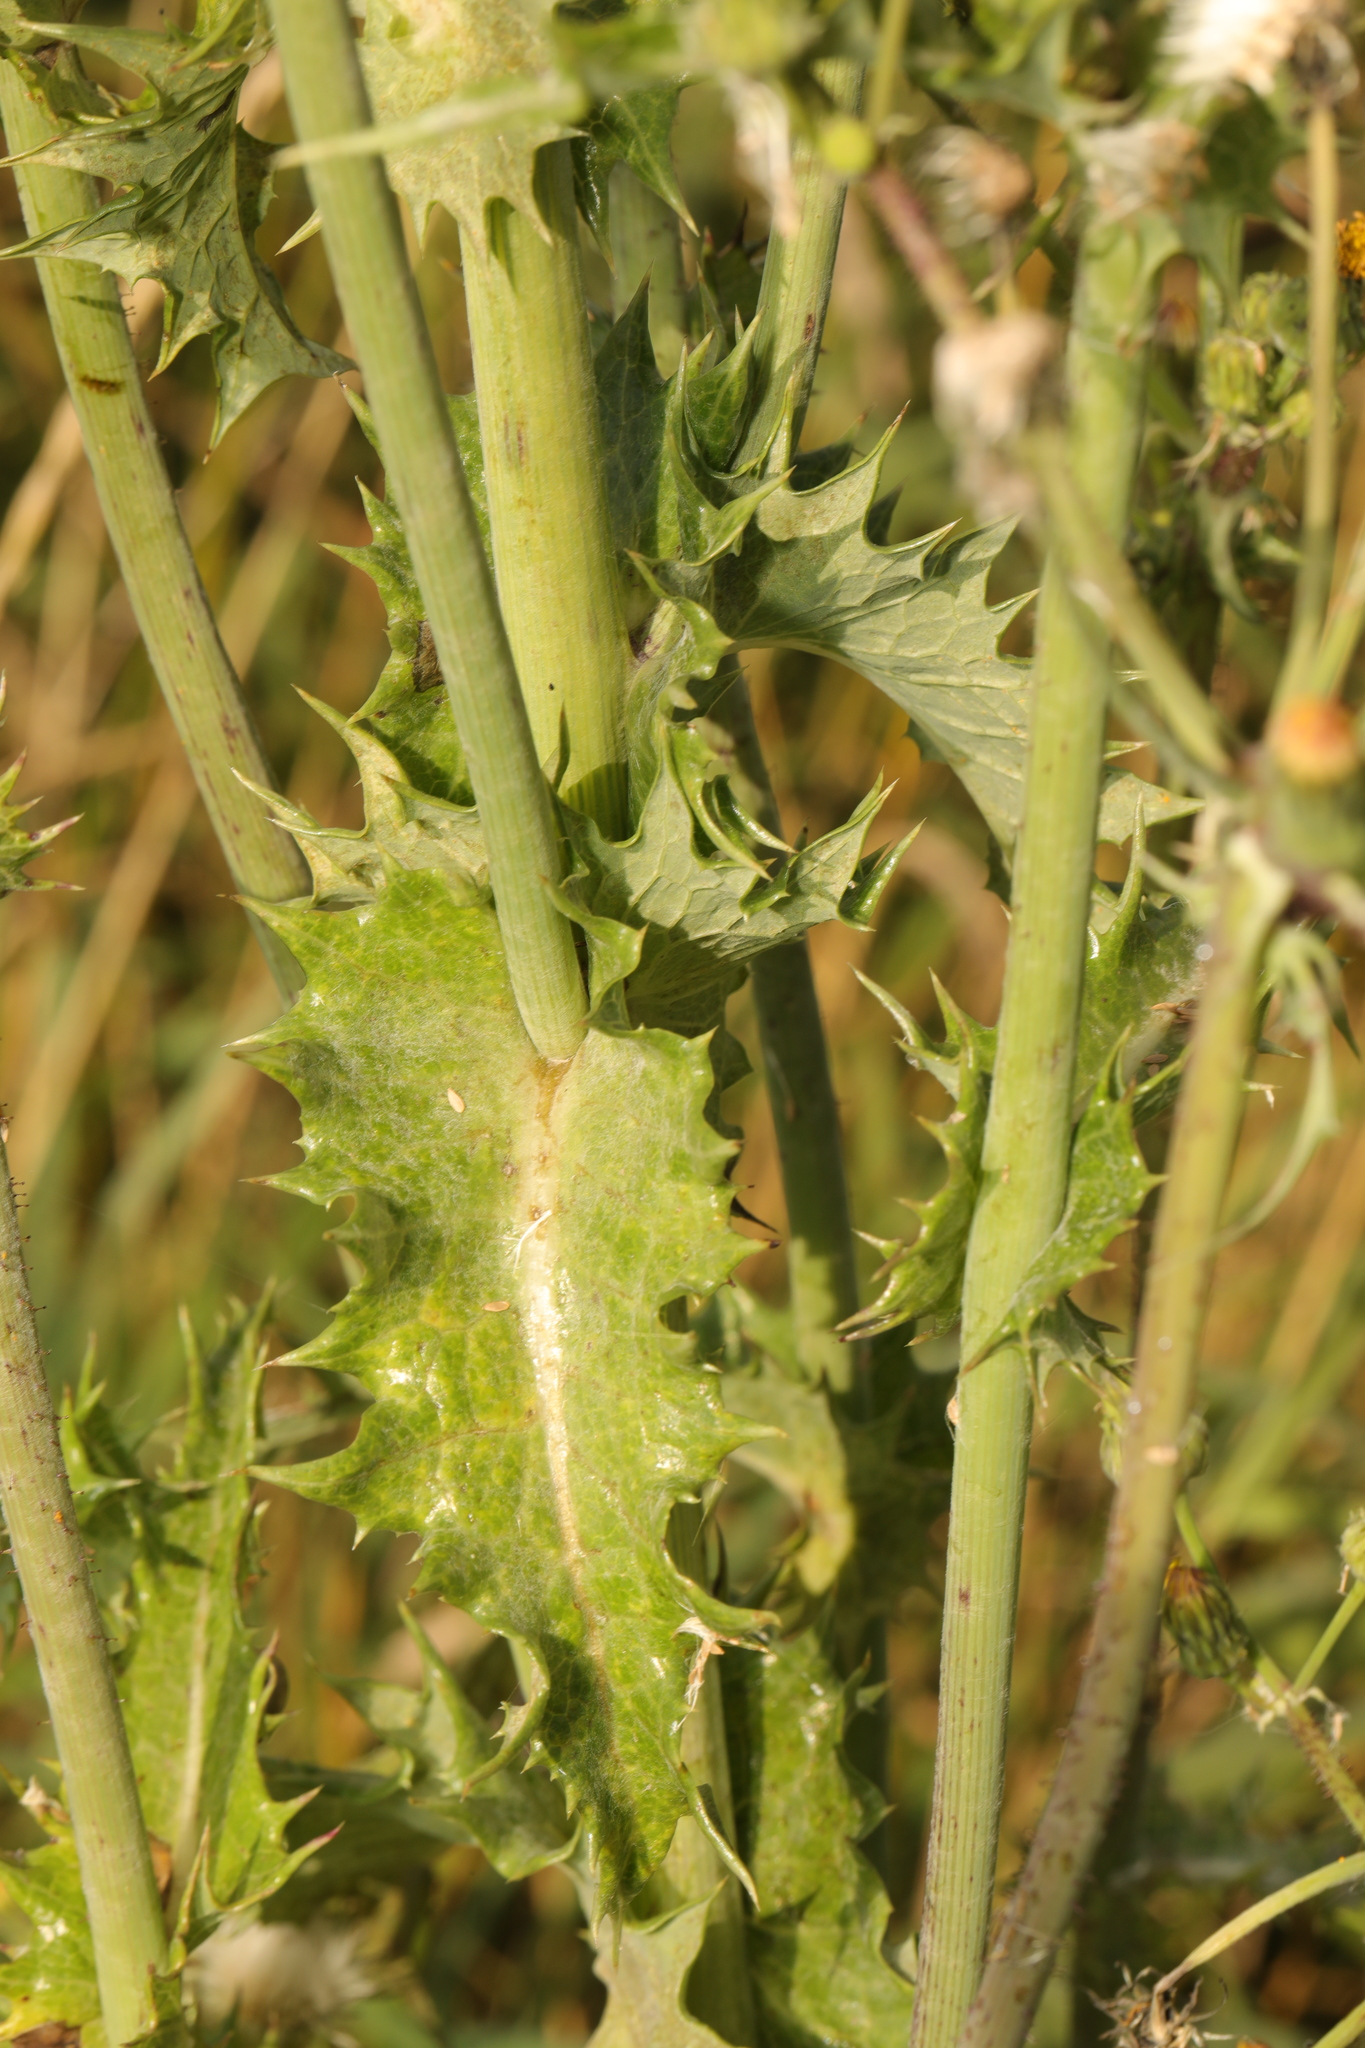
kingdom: Plantae
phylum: Tracheophyta
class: Magnoliopsida
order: Asterales
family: Asteraceae
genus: Sonchus
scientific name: Sonchus asper
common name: Prickly sow-thistle
